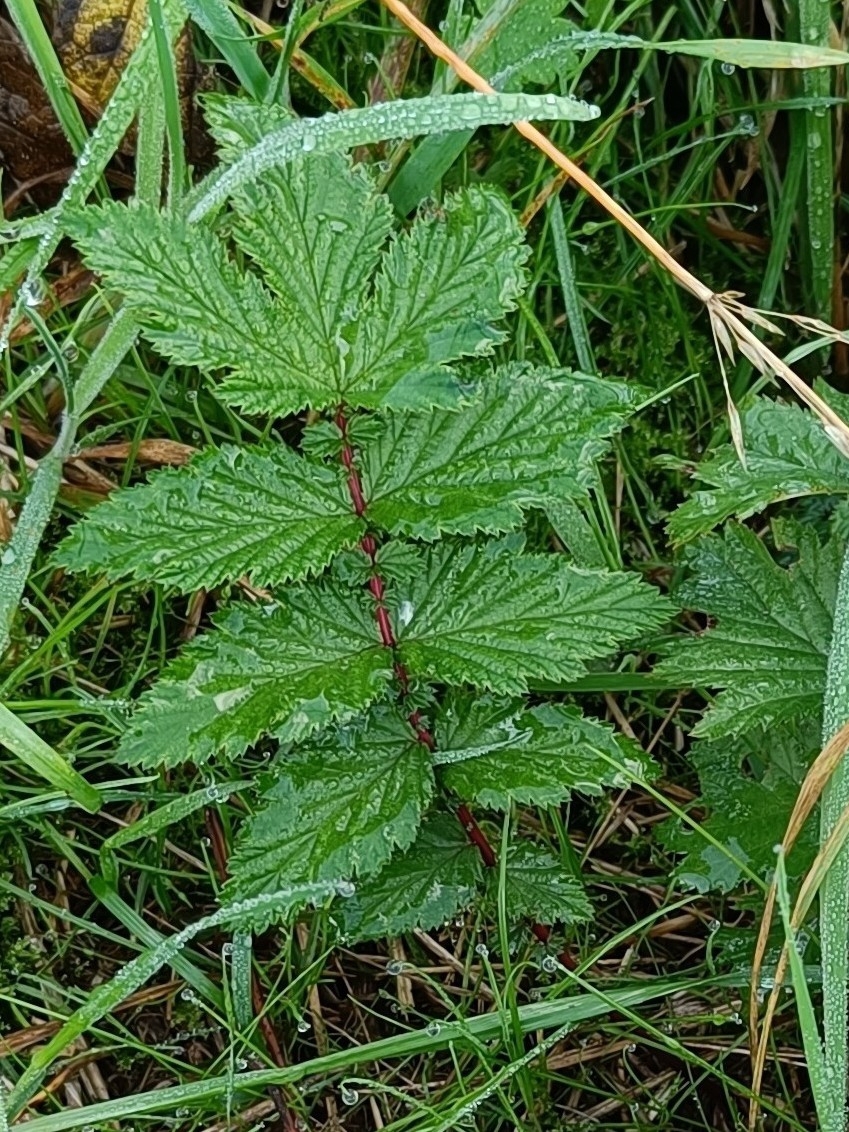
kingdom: Plantae
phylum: Tracheophyta
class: Magnoliopsida
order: Rosales
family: Rosaceae
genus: Filipendula
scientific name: Filipendula ulmaria
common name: Meadowsweet
